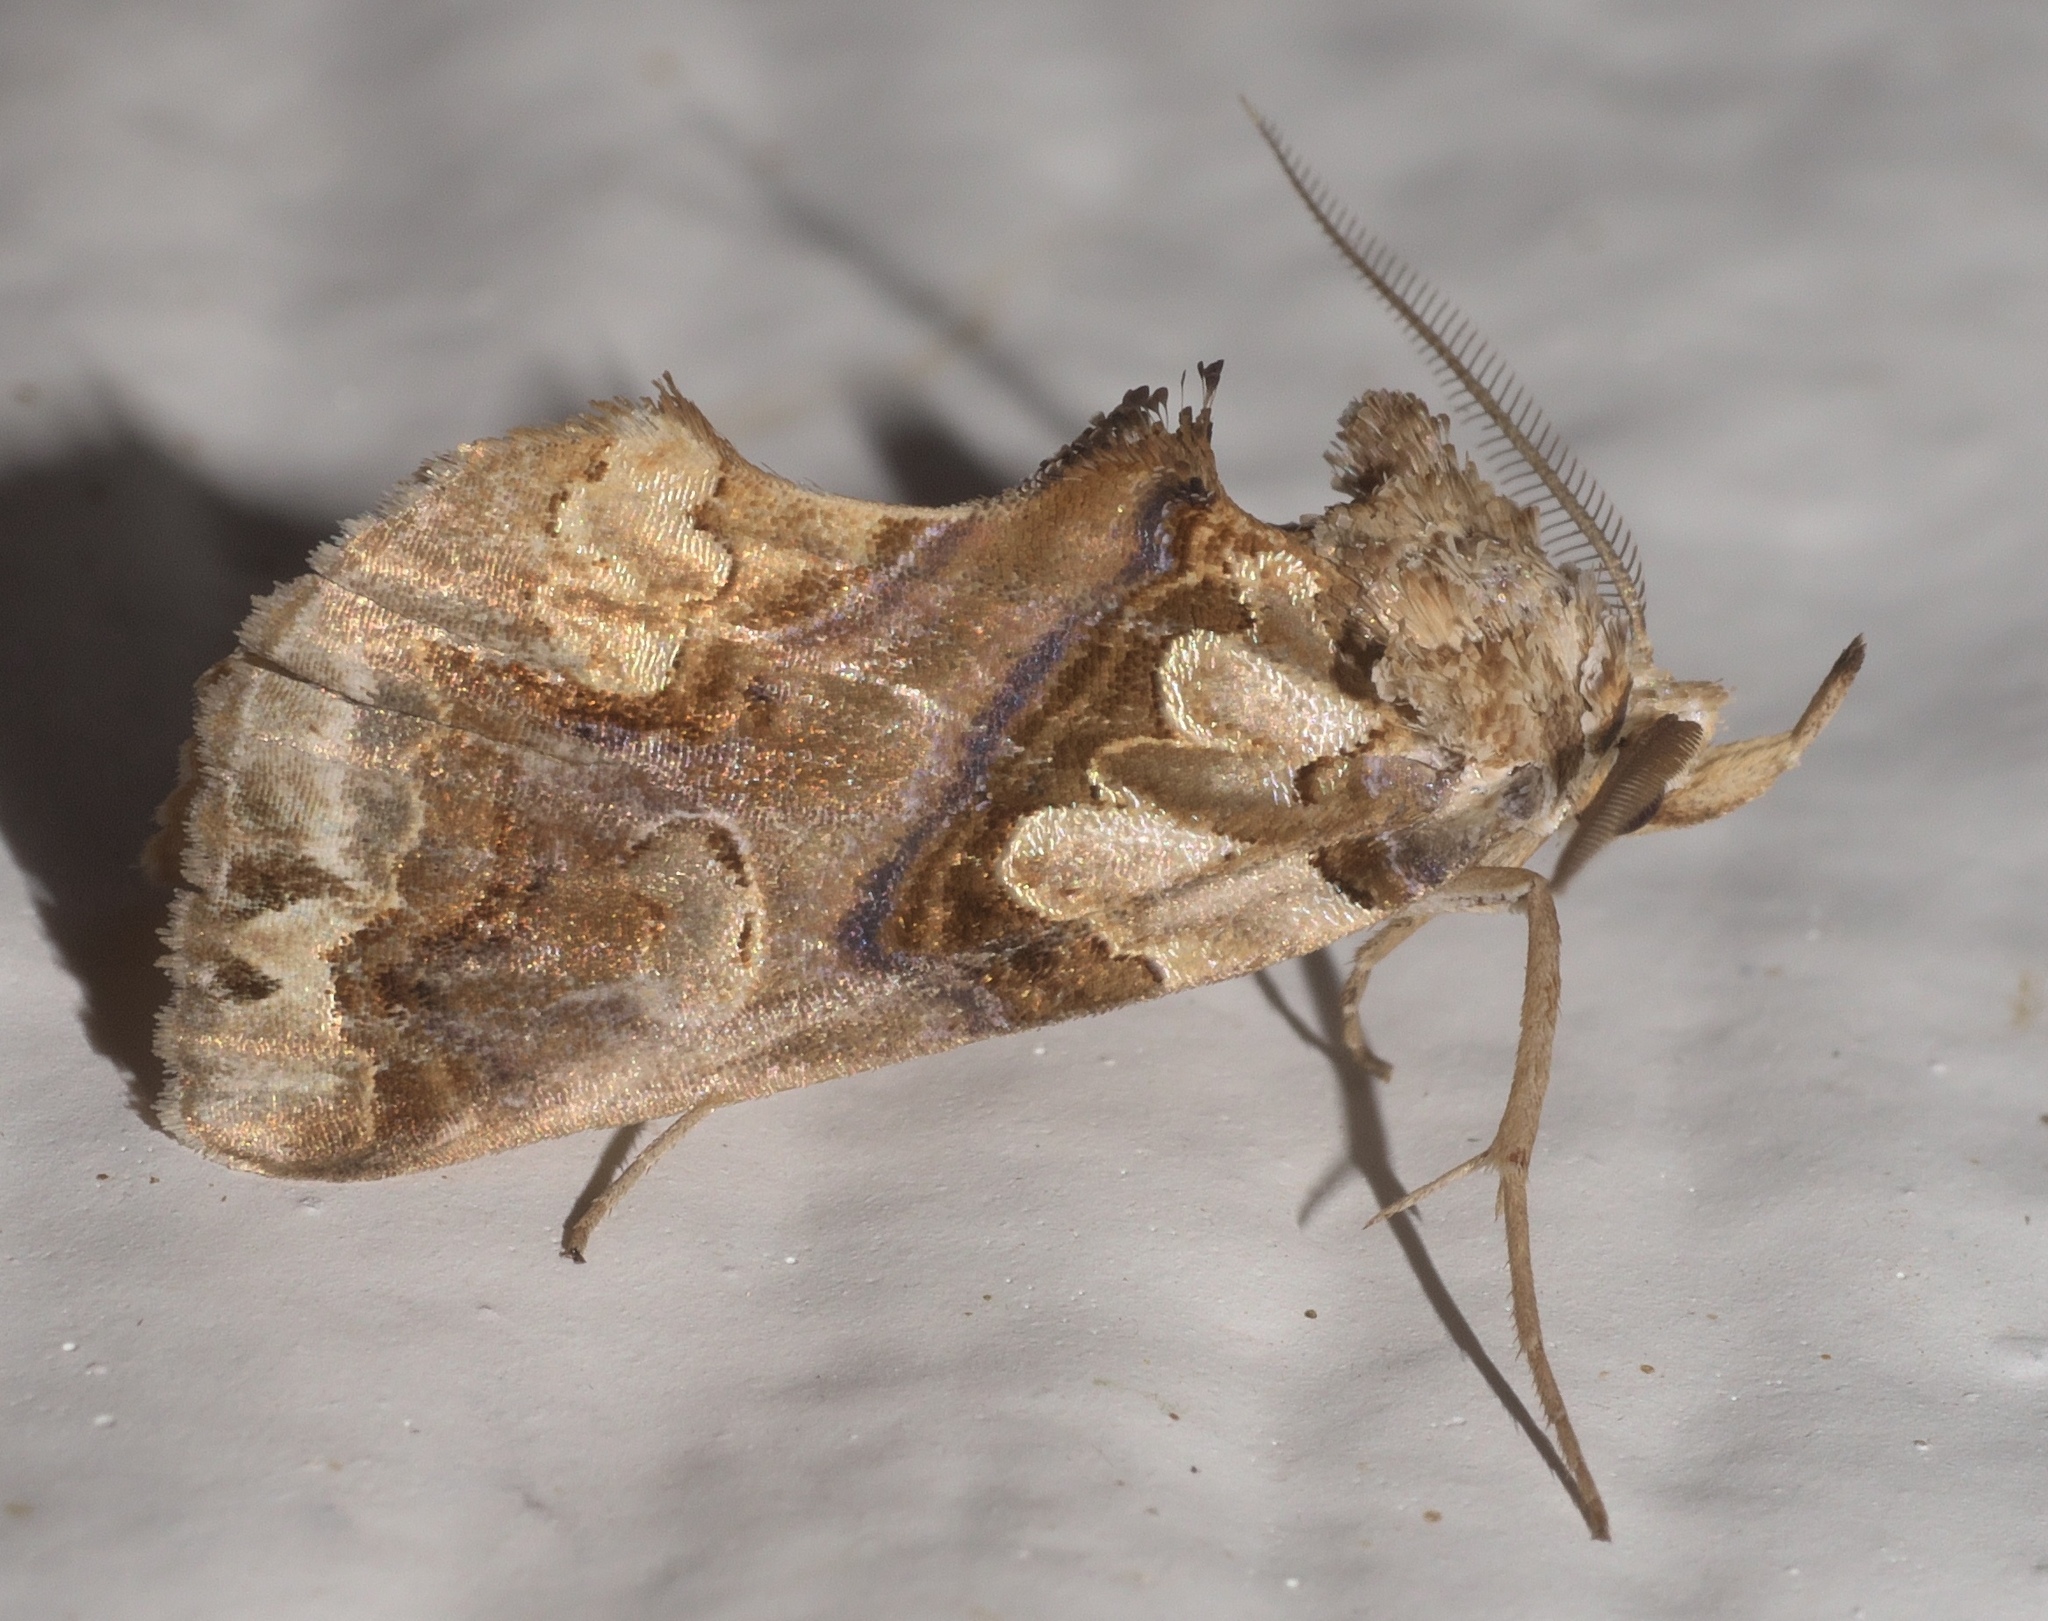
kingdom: Animalia
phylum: Arthropoda
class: Insecta
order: Lepidoptera
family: Erebidae
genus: Plusiodonta
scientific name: Plusiodonta compressipalpis
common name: Moonseed moth
